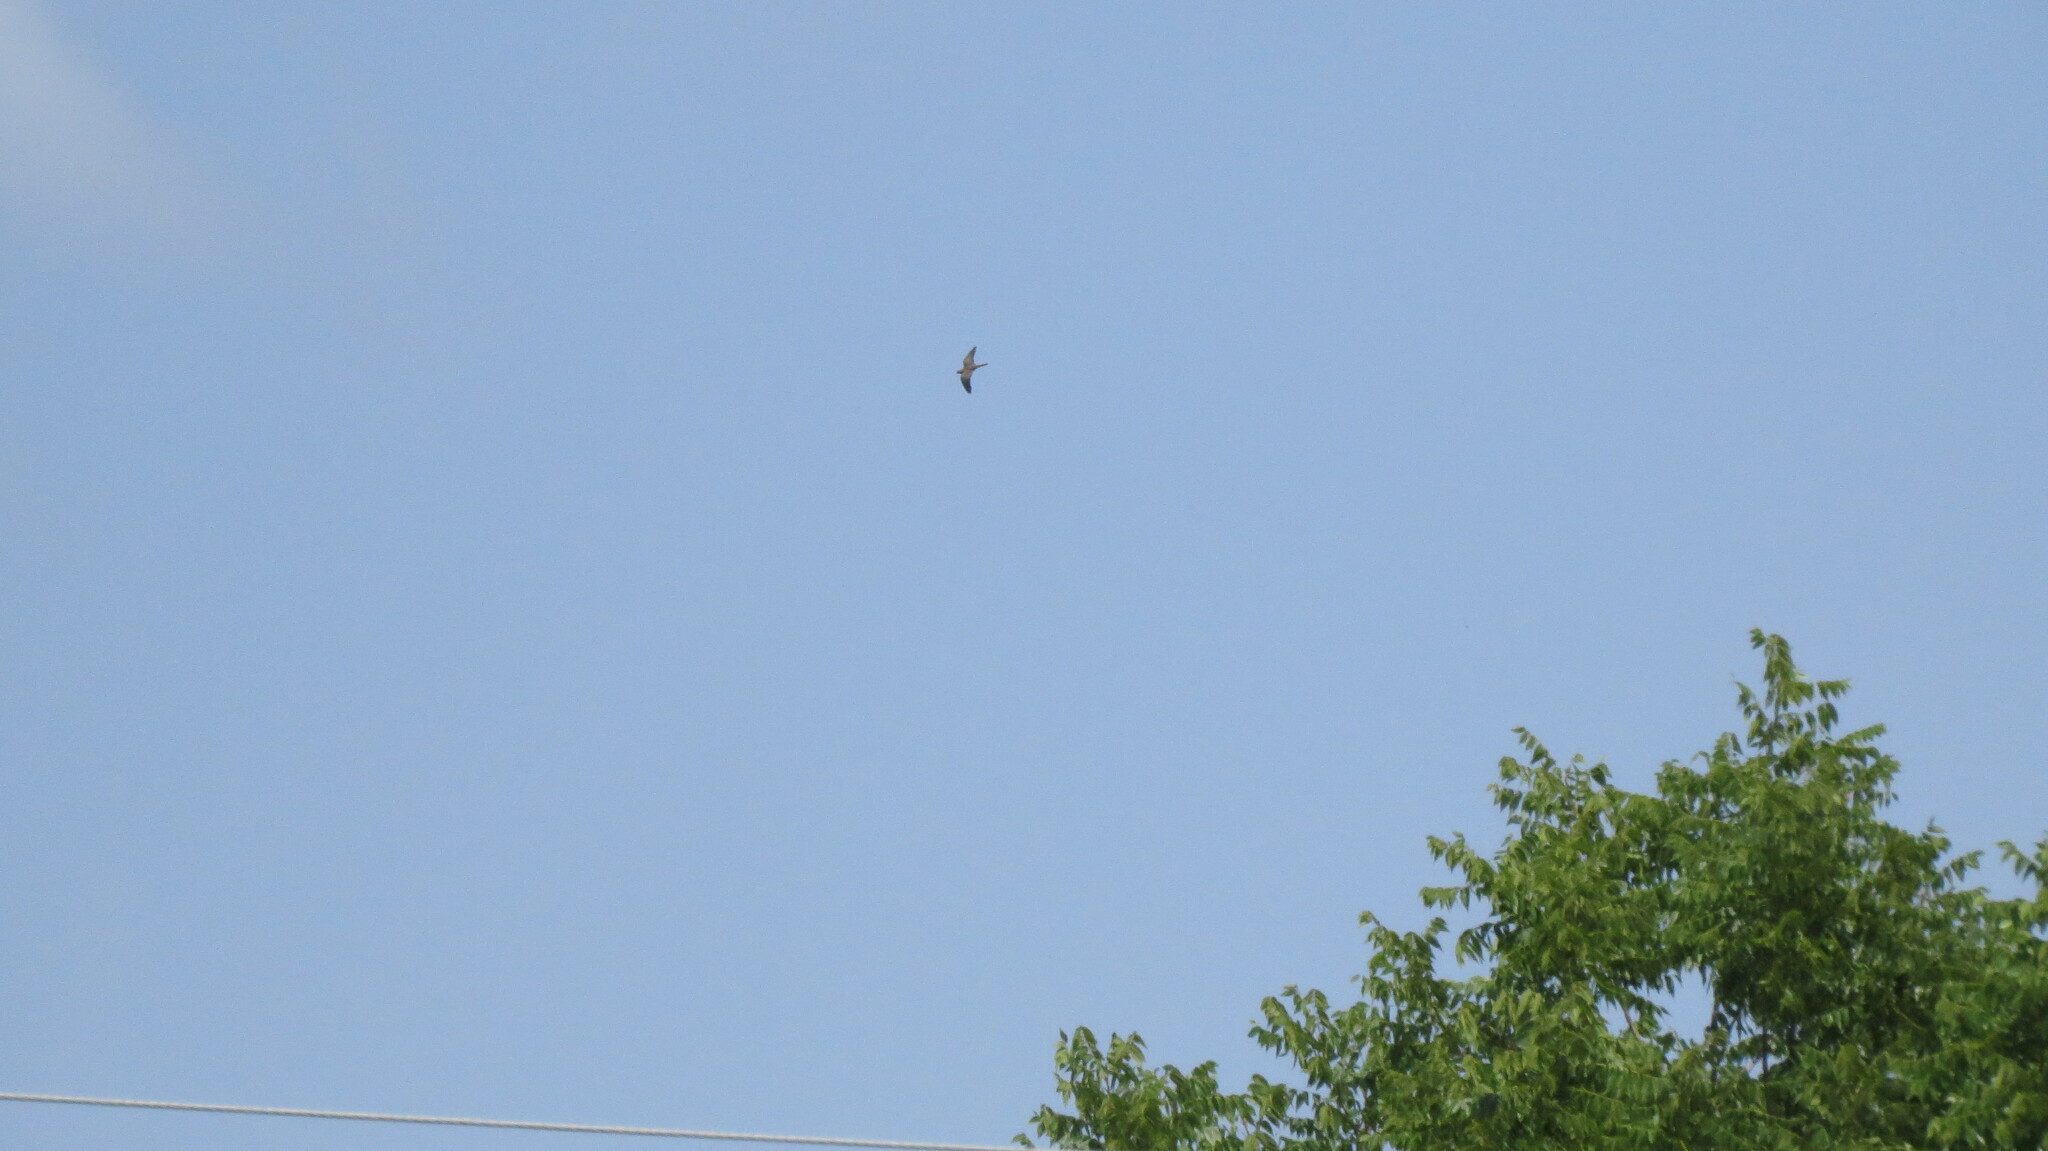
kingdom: Animalia
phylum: Chordata
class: Aves
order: Columbiformes
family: Columbidae
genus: Zenaida
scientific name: Zenaida macroura
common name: Mourning dove
